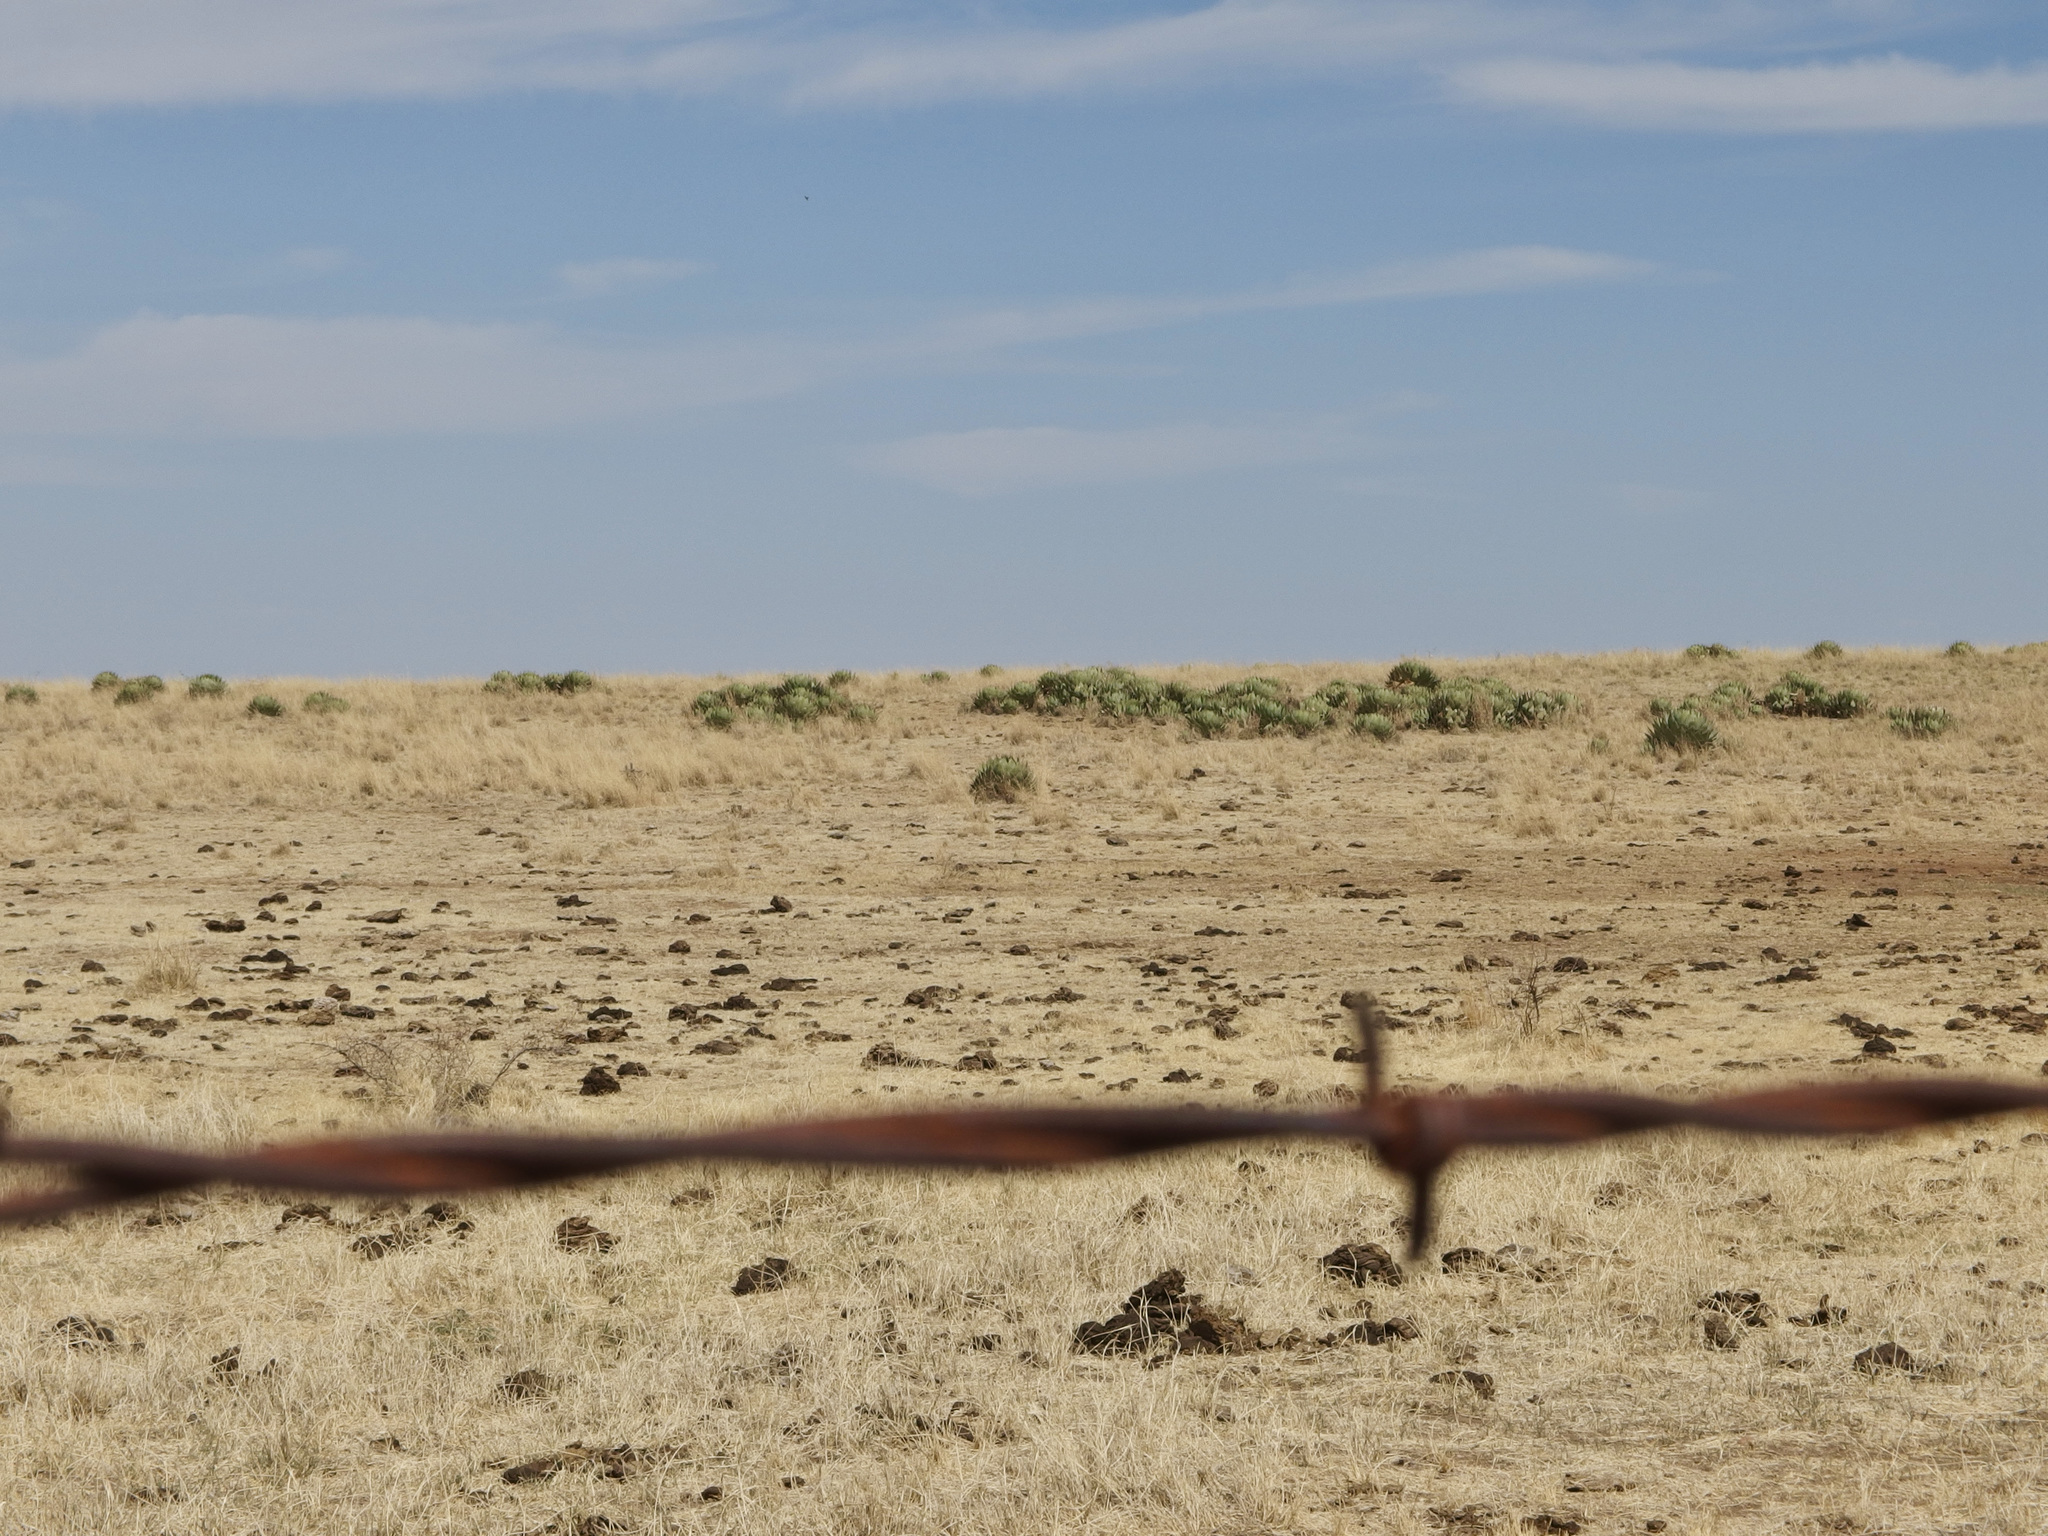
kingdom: Plantae
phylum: Tracheophyta
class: Liliopsida
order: Asparagales
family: Asparagaceae
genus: Agave
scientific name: Agave parryi
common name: Parry's agave
